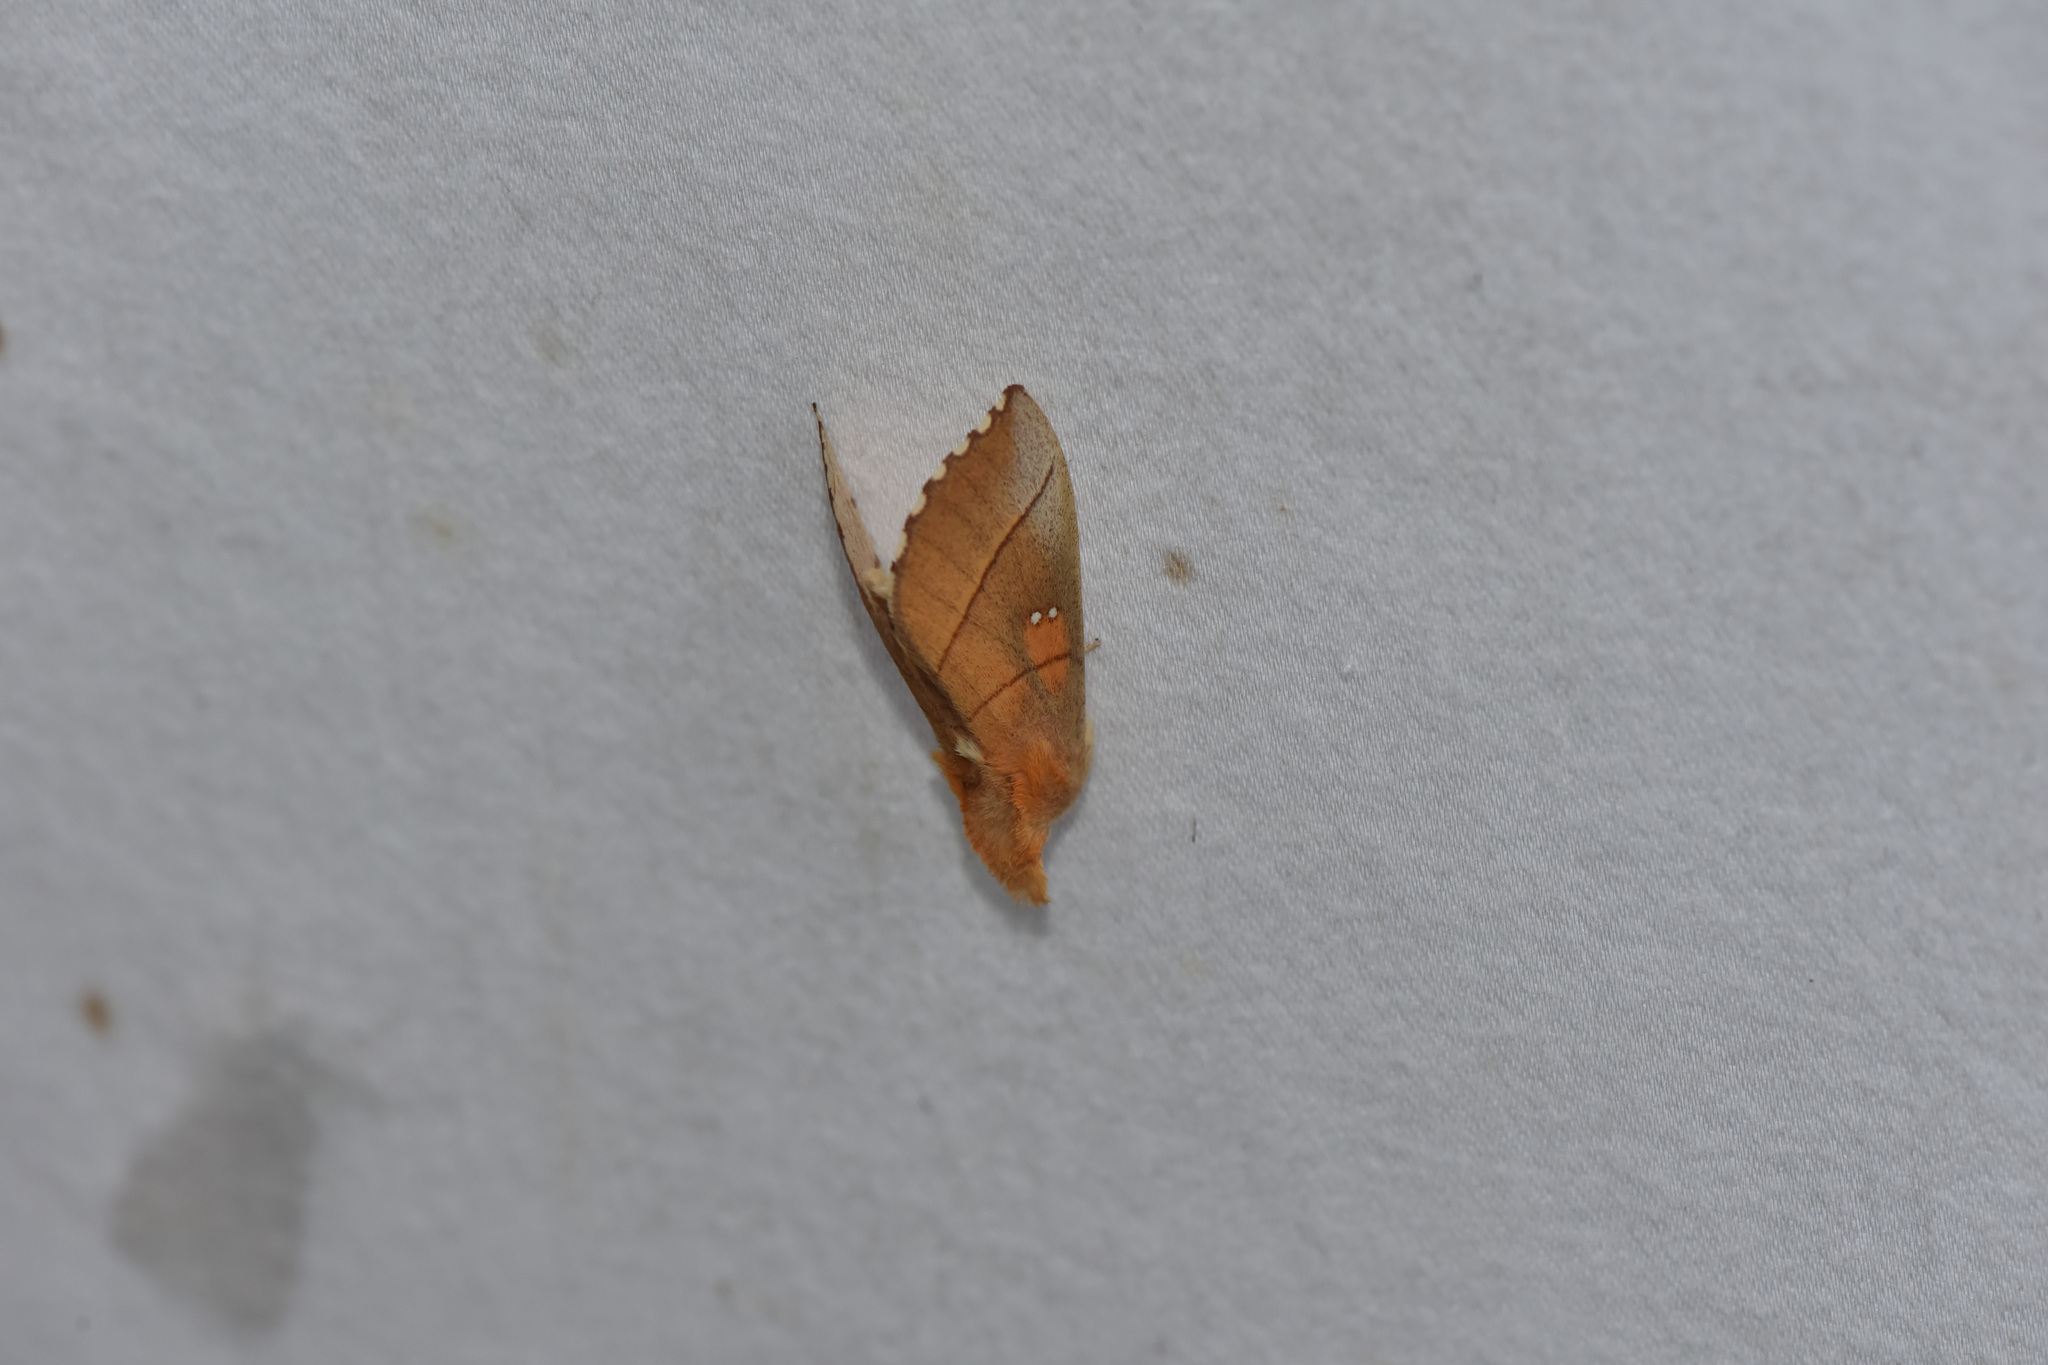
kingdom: Animalia
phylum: Arthropoda
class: Insecta
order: Lepidoptera
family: Notodontidae
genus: Nadata
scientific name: Nadata gibbosa
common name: White-dotted prominent
